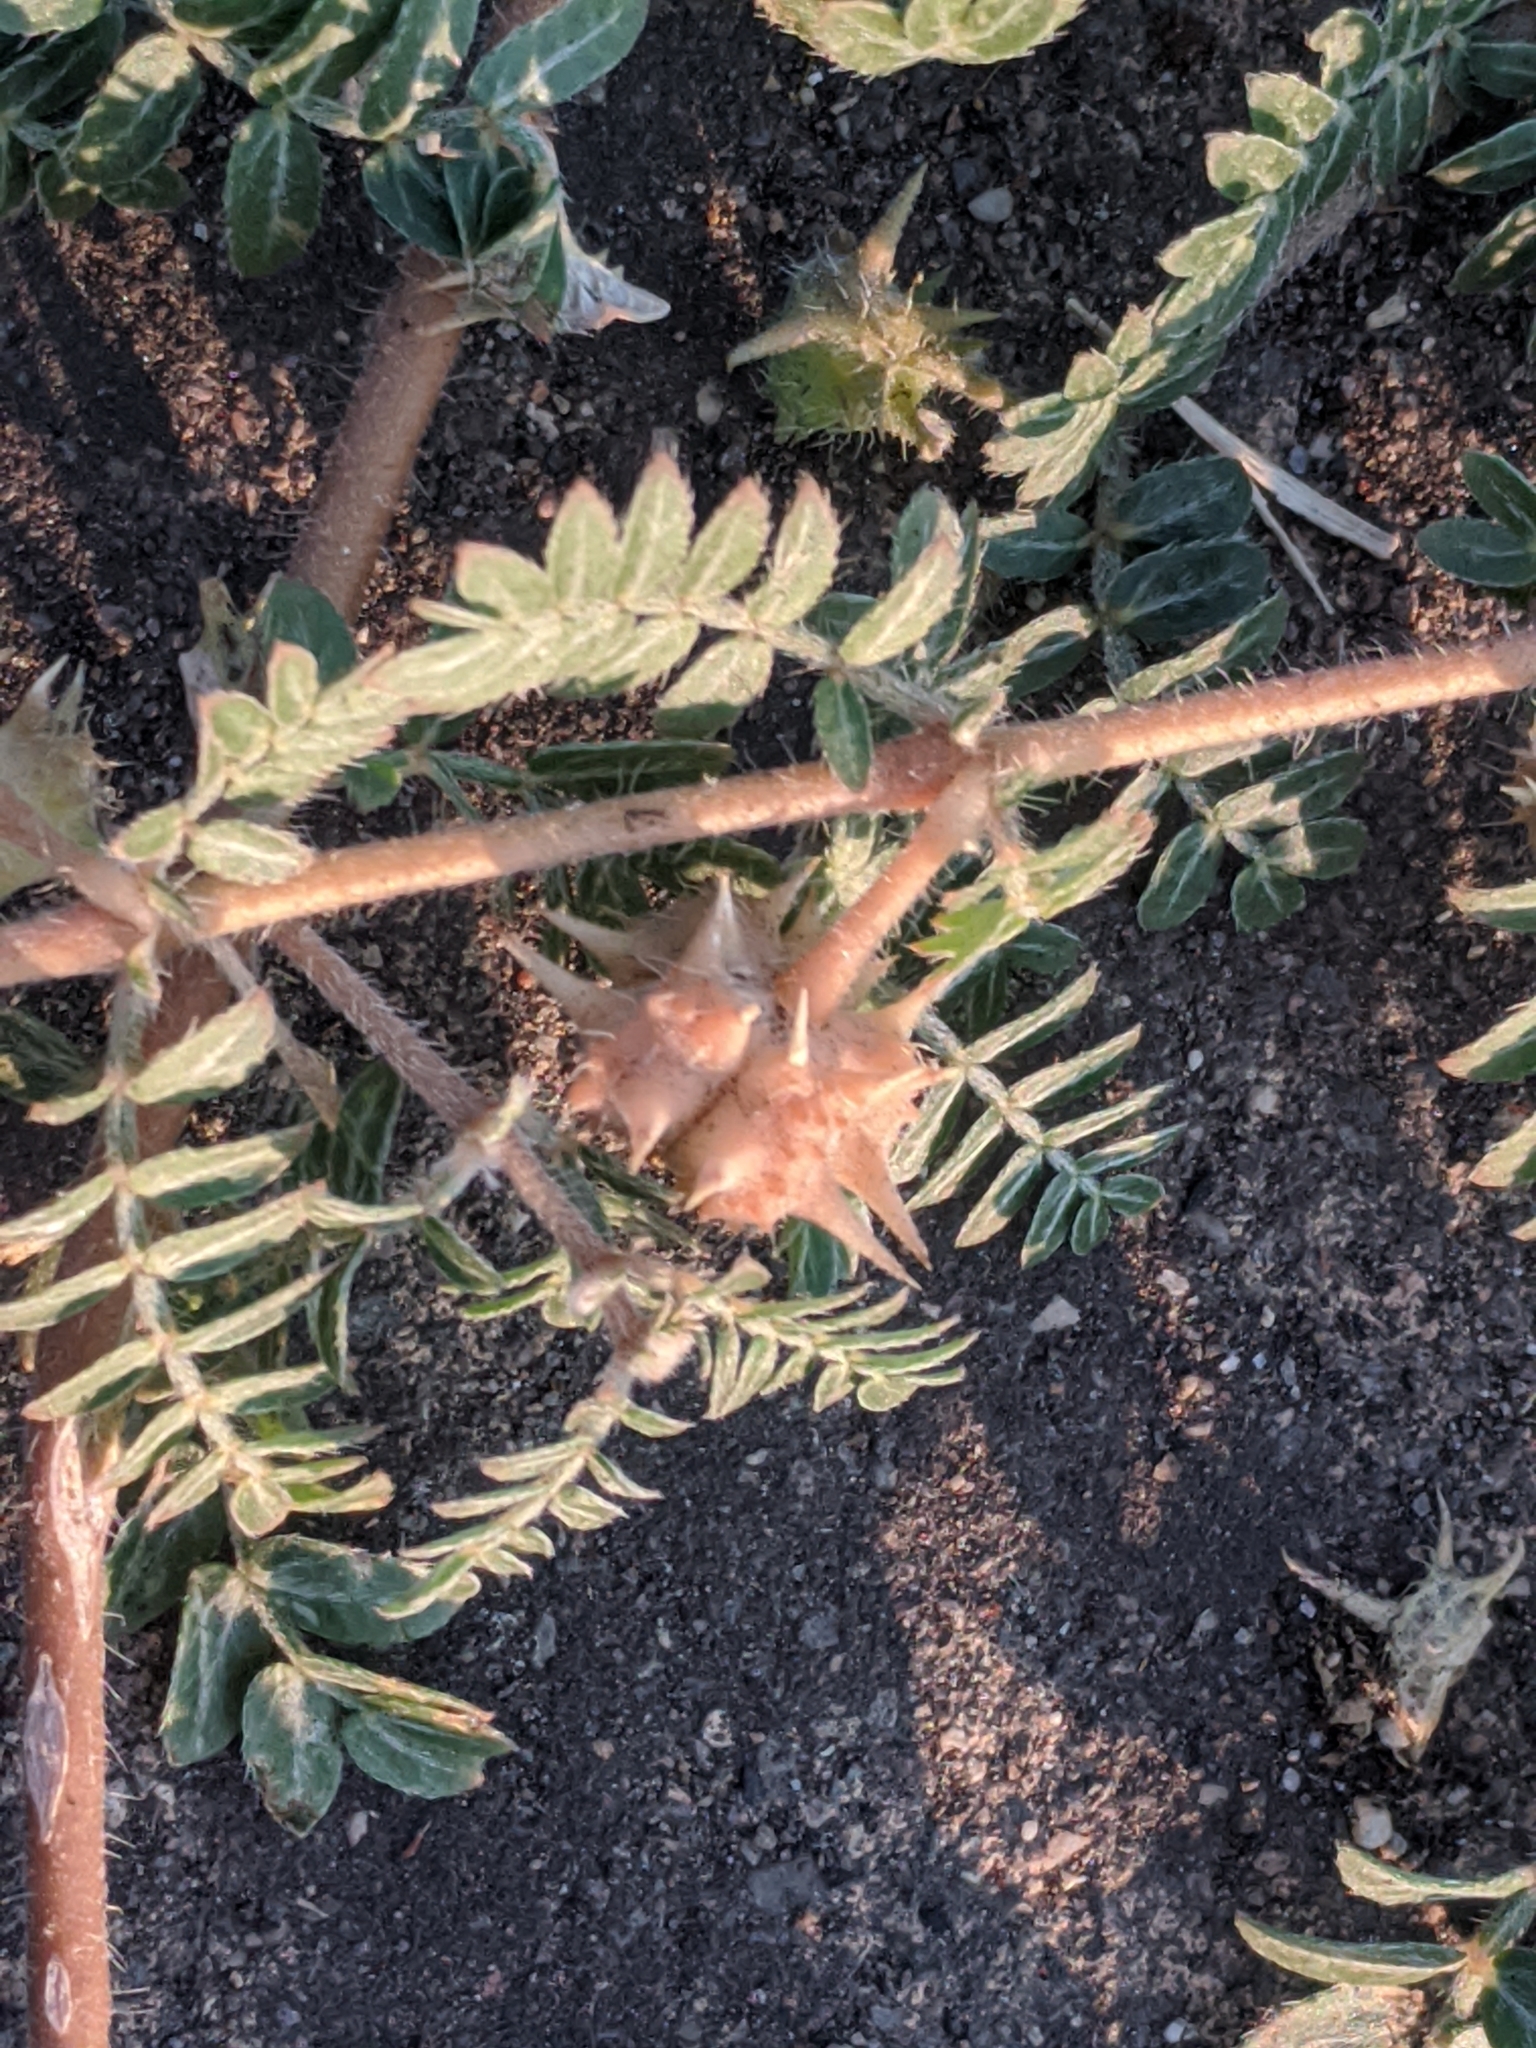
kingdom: Plantae
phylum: Tracheophyta
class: Magnoliopsida
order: Zygophyllales
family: Zygophyllaceae
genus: Tribulus
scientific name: Tribulus terrestris
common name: Puncturevine
